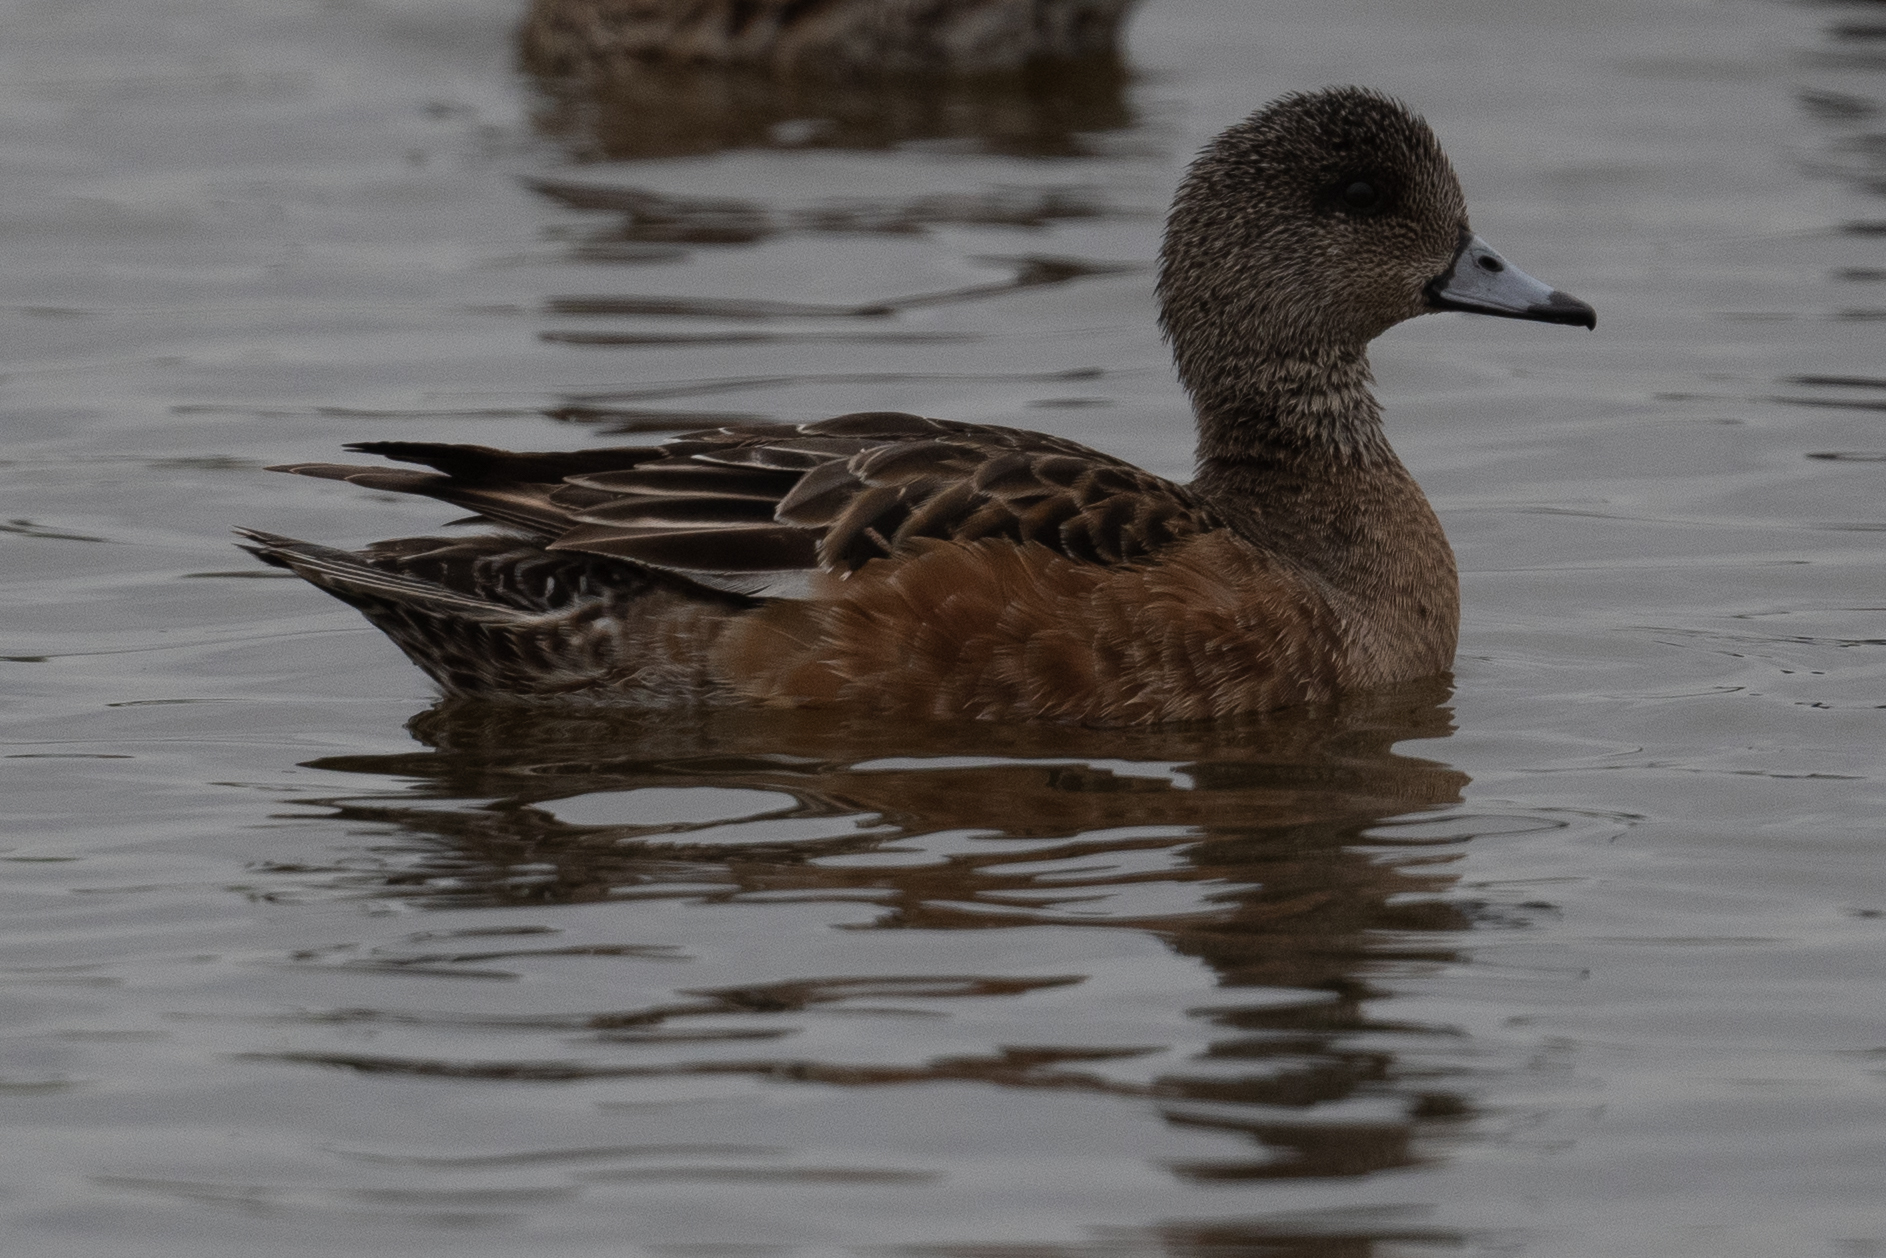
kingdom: Animalia
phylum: Chordata
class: Aves
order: Anseriformes
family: Anatidae
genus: Mareca
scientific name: Mareca americana
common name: American wigeon
